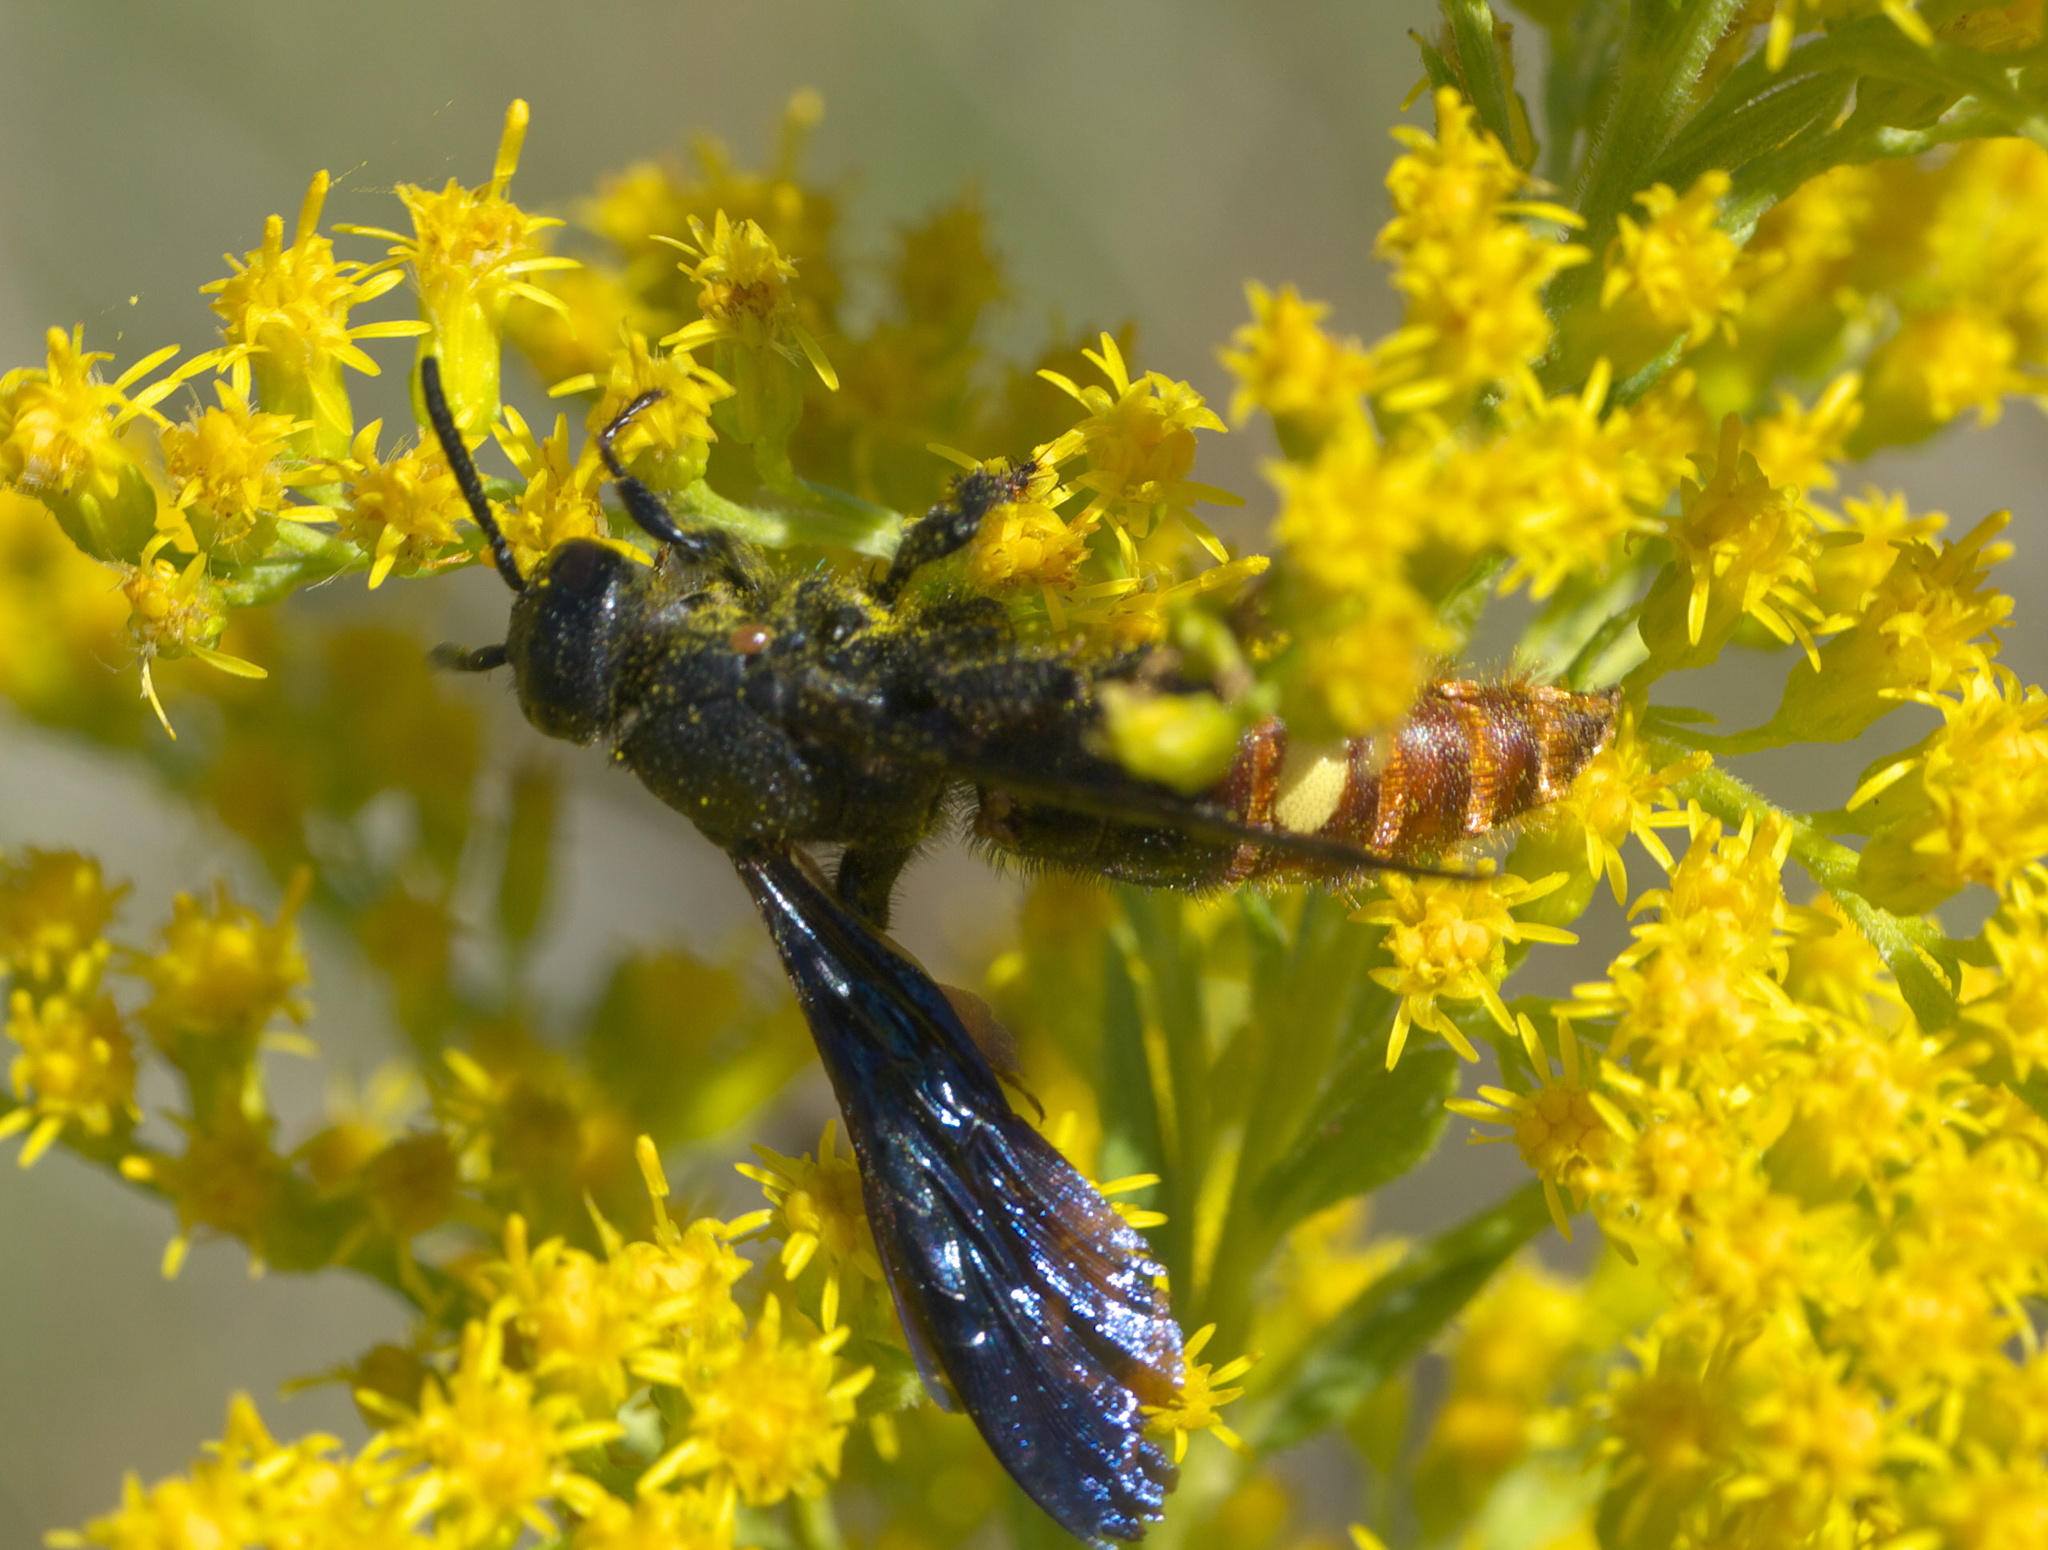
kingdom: Animalia
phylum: Arthropoda
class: Insecta
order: Hymenoptera
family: Scoliidae
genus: Scolia
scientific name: Scolia dubia
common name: Blue-winged scoliid wasp
